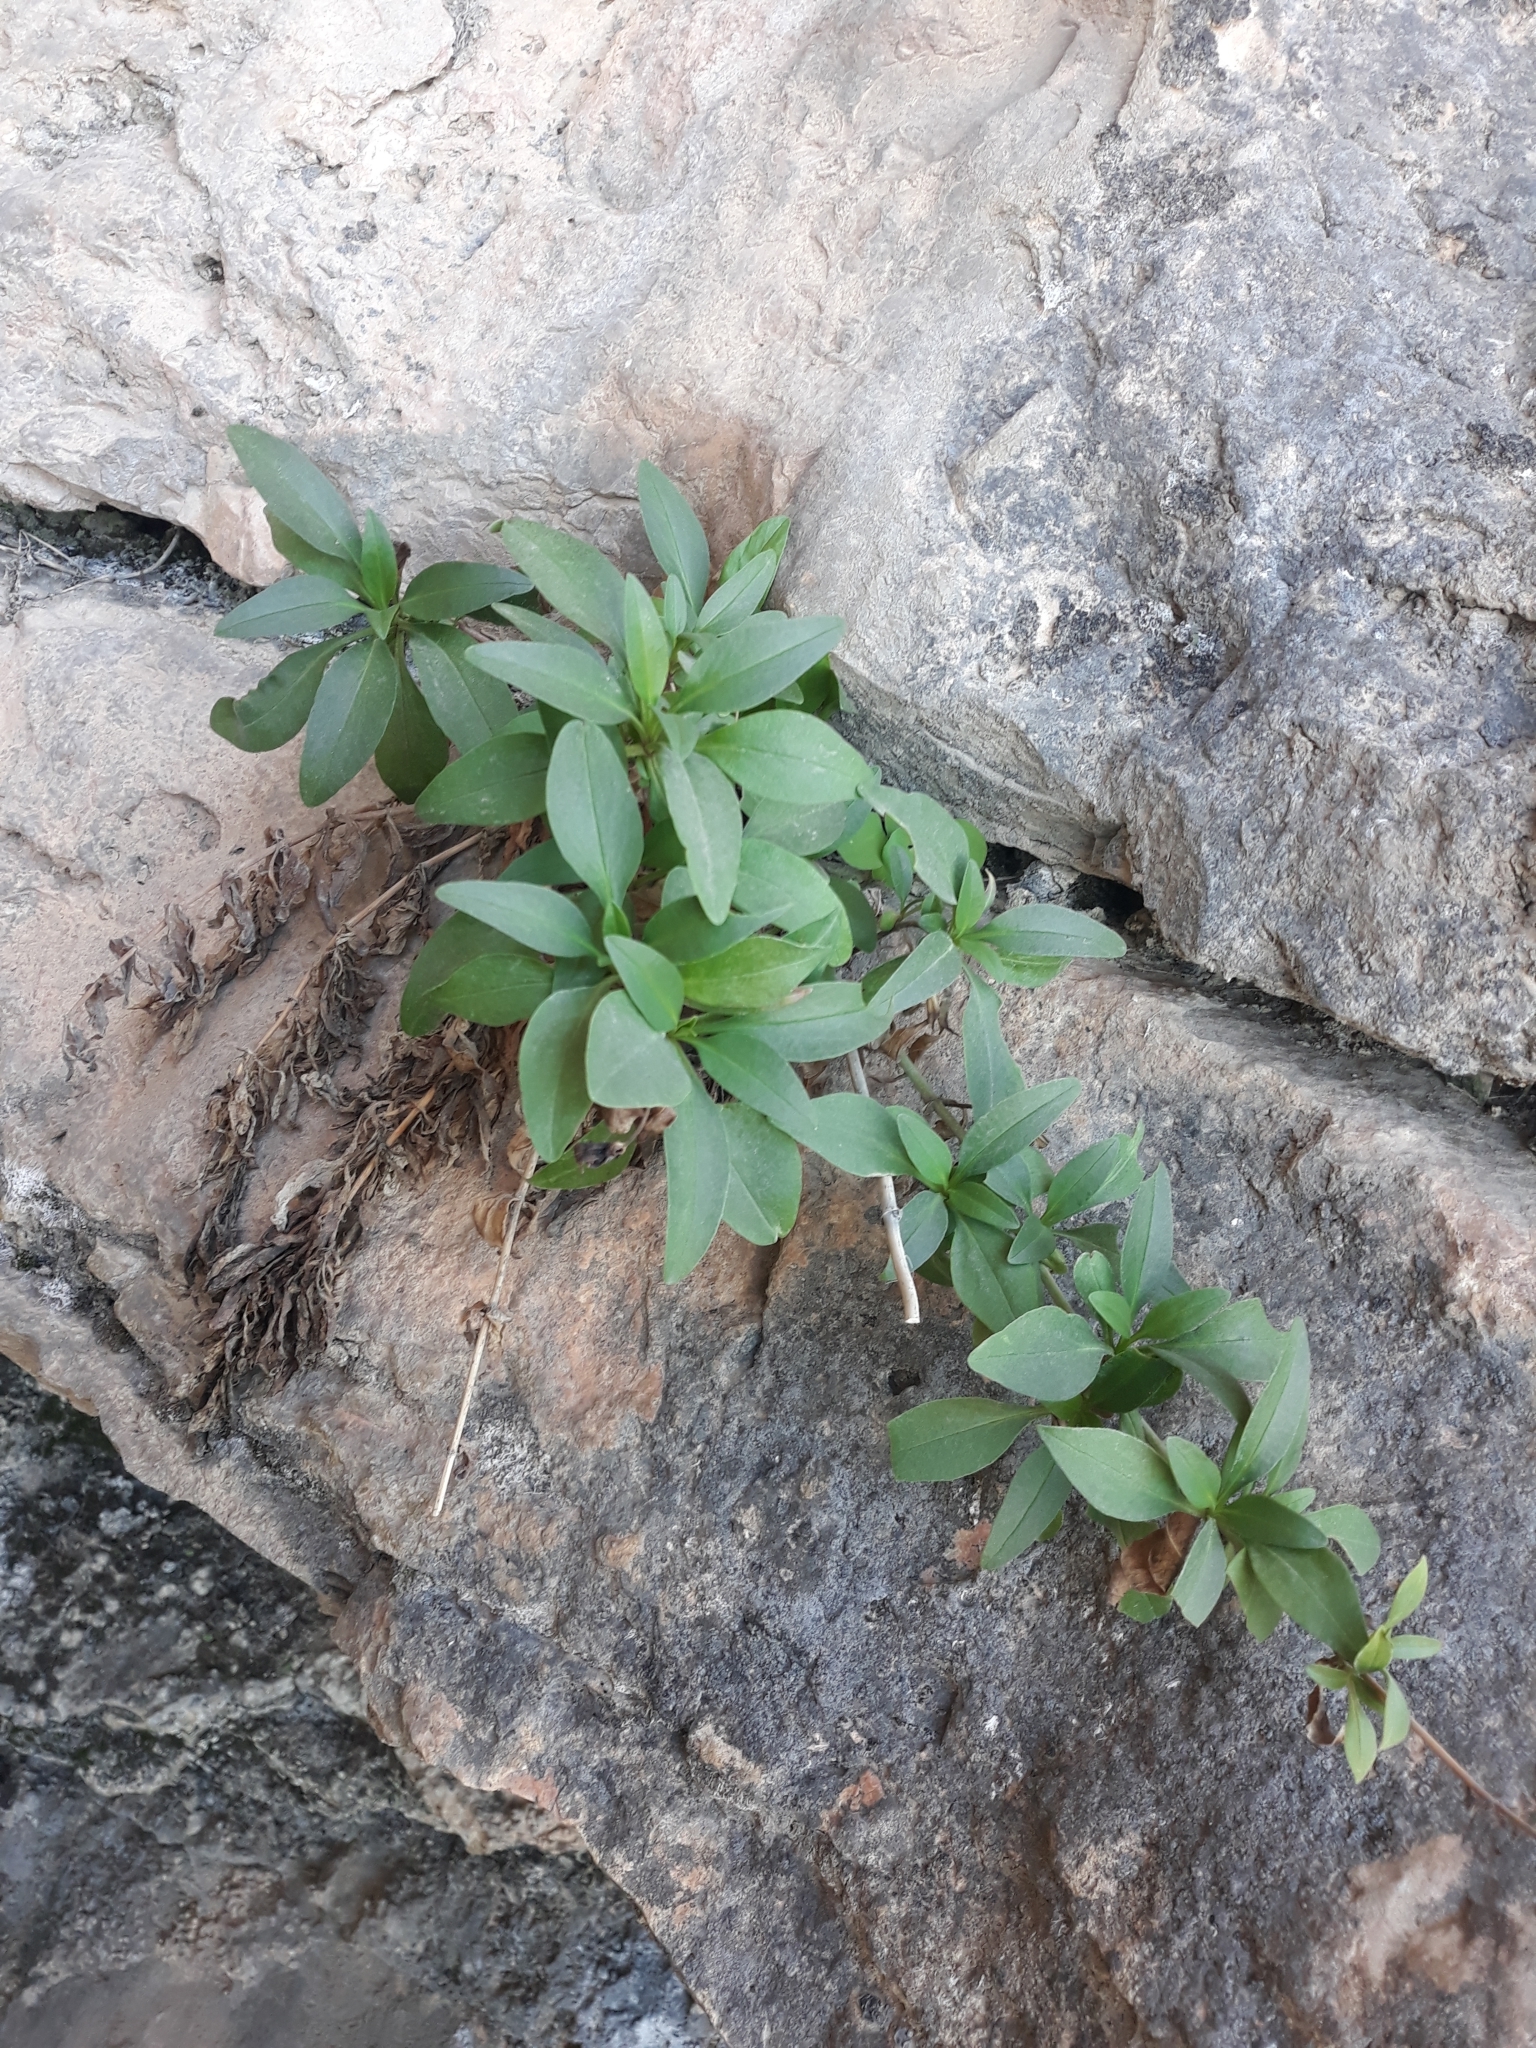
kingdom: Plantae
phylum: Tracheophyta
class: Magnoliopsida
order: Dipsacales
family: Caprifoliaceae
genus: Centranthus
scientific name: Centranthus ruber
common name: Red valerian
